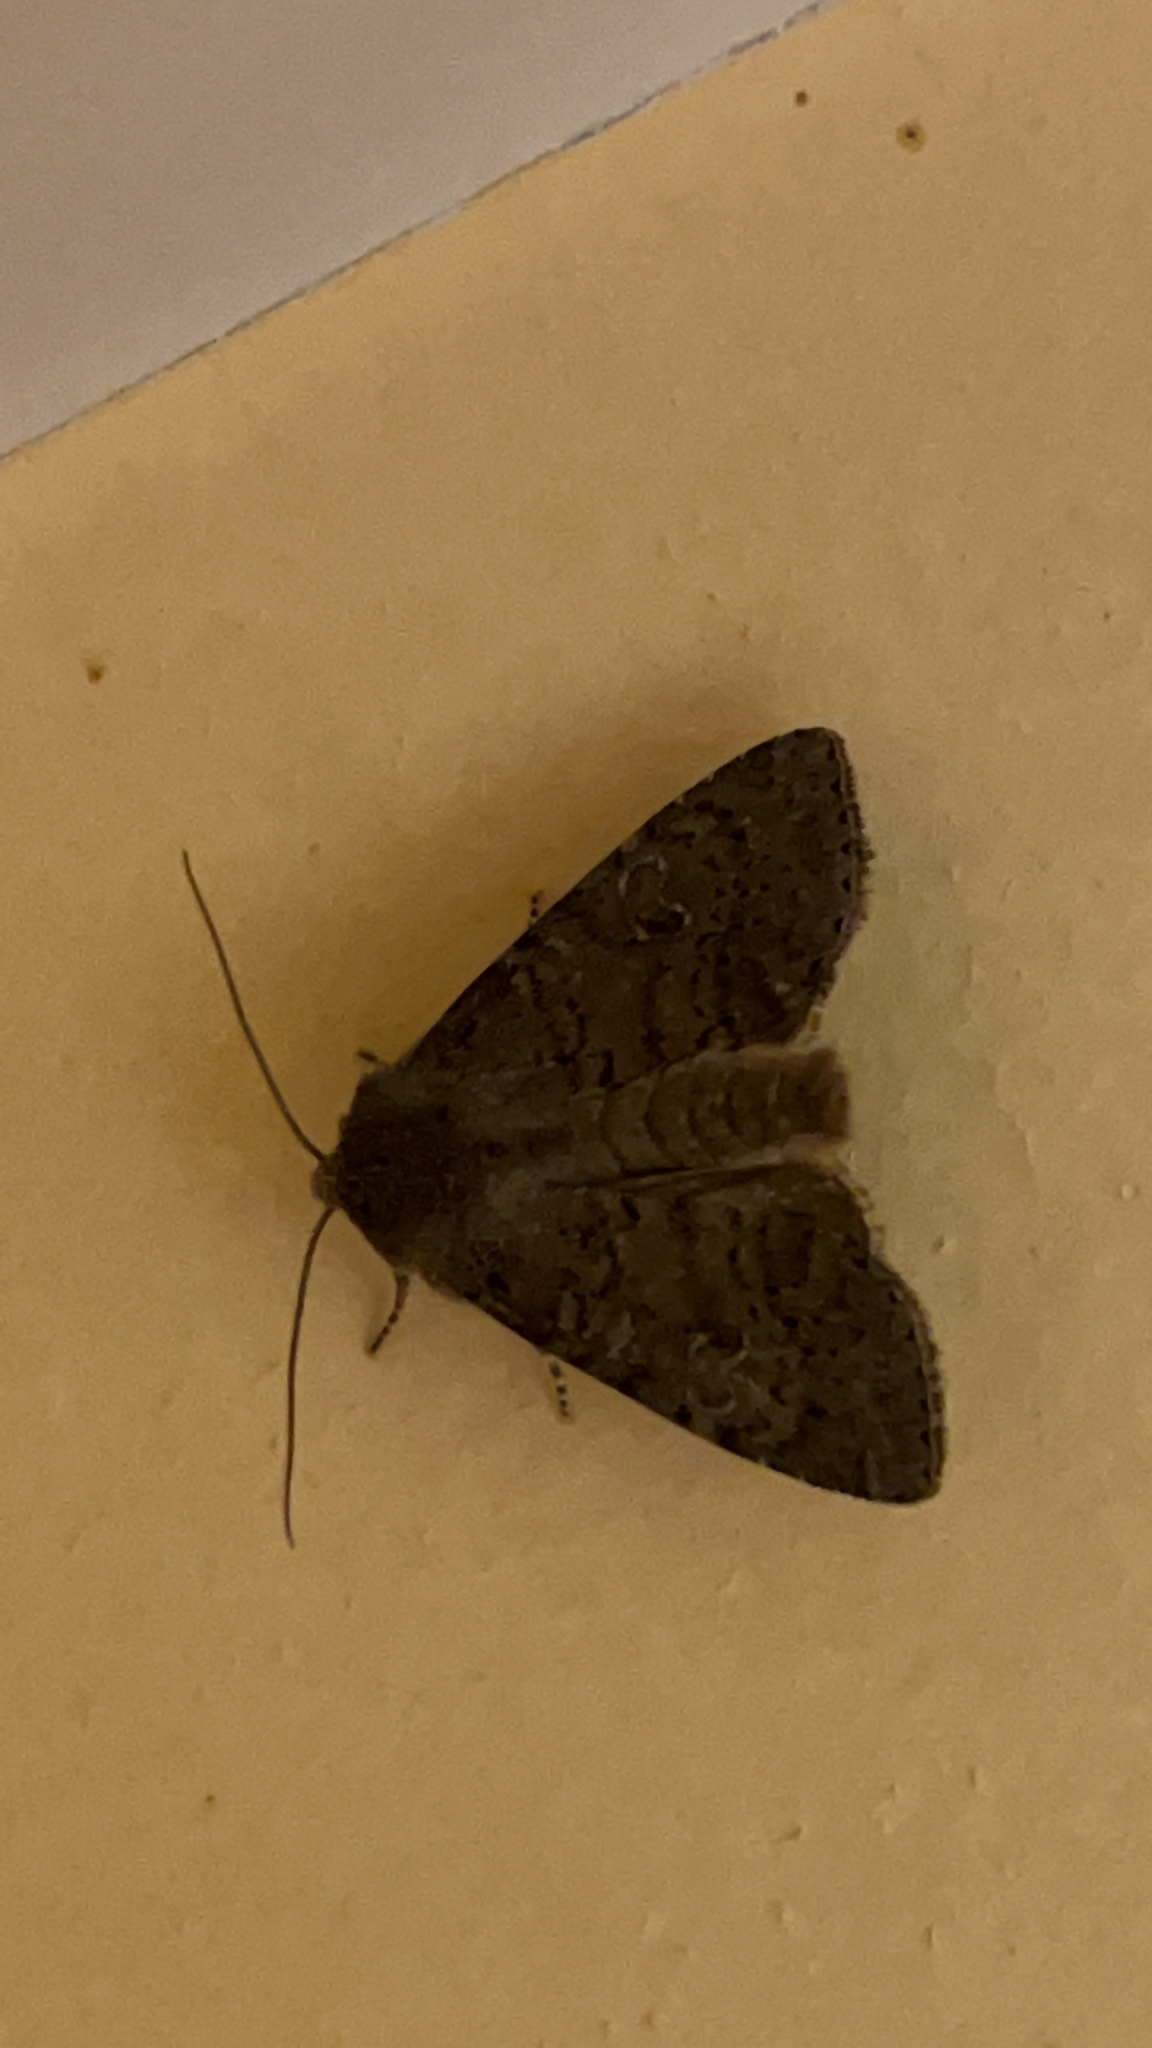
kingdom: Animalia
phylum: Arthropoda
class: Insecta
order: Lepidoptera
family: Noctuidae
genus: Parastichtis
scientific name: Parastichtis suspecta
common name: Suspected
